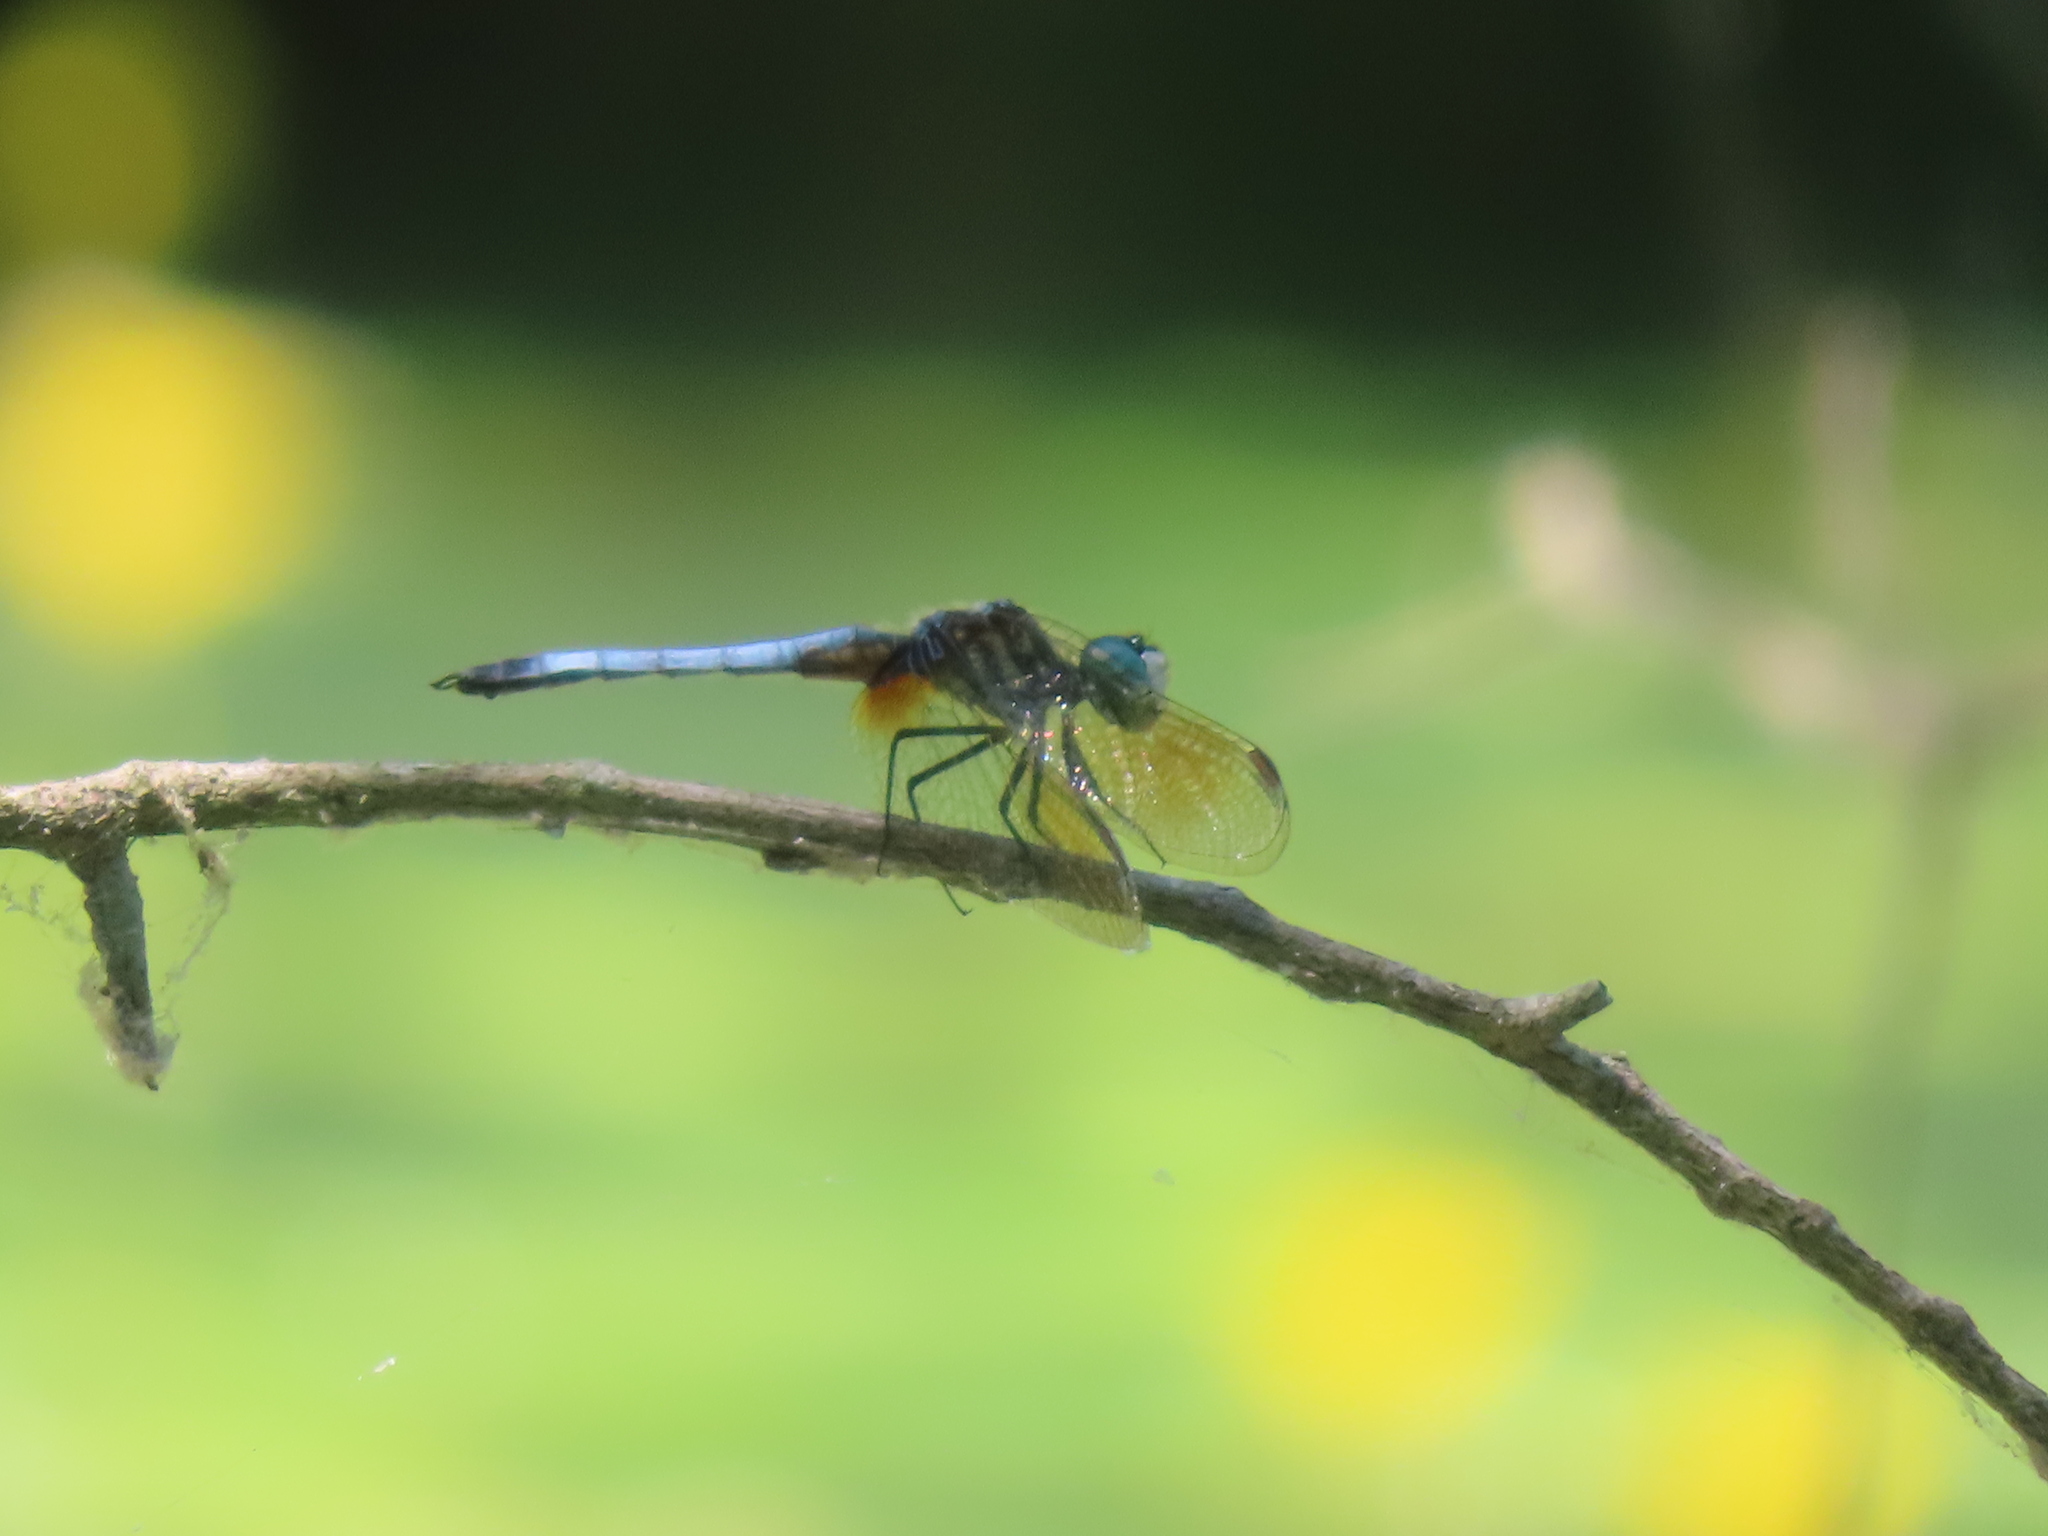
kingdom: Animalia
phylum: Arthropoda
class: Insecta
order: Odonata
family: Libellulidae
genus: Pachydiplax
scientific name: Pachydiplax longipennis
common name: Blue dasher
